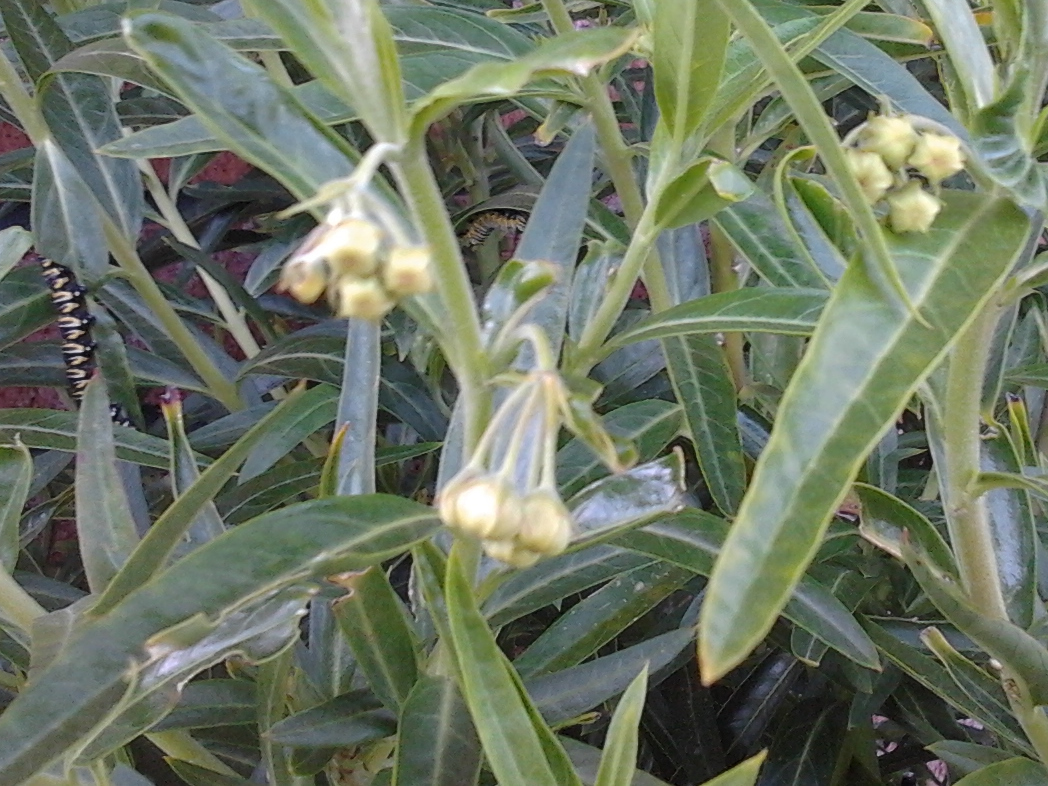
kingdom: Animalia
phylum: Arthropoda
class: Insecta
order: Lepidoptera
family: Nymphalidae
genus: Danaus
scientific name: Danaus plexippus
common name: Monarch
